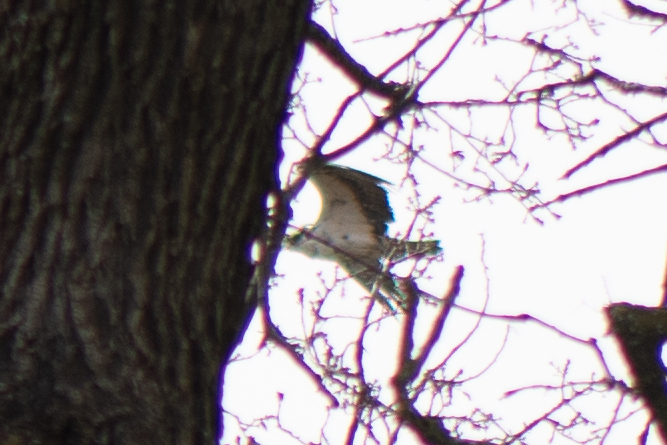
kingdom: Animalia
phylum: Chordata
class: Aves
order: Accipitriformes
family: Pandionidae
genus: Pandion
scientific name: Pandion haliaetus
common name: Osprey
